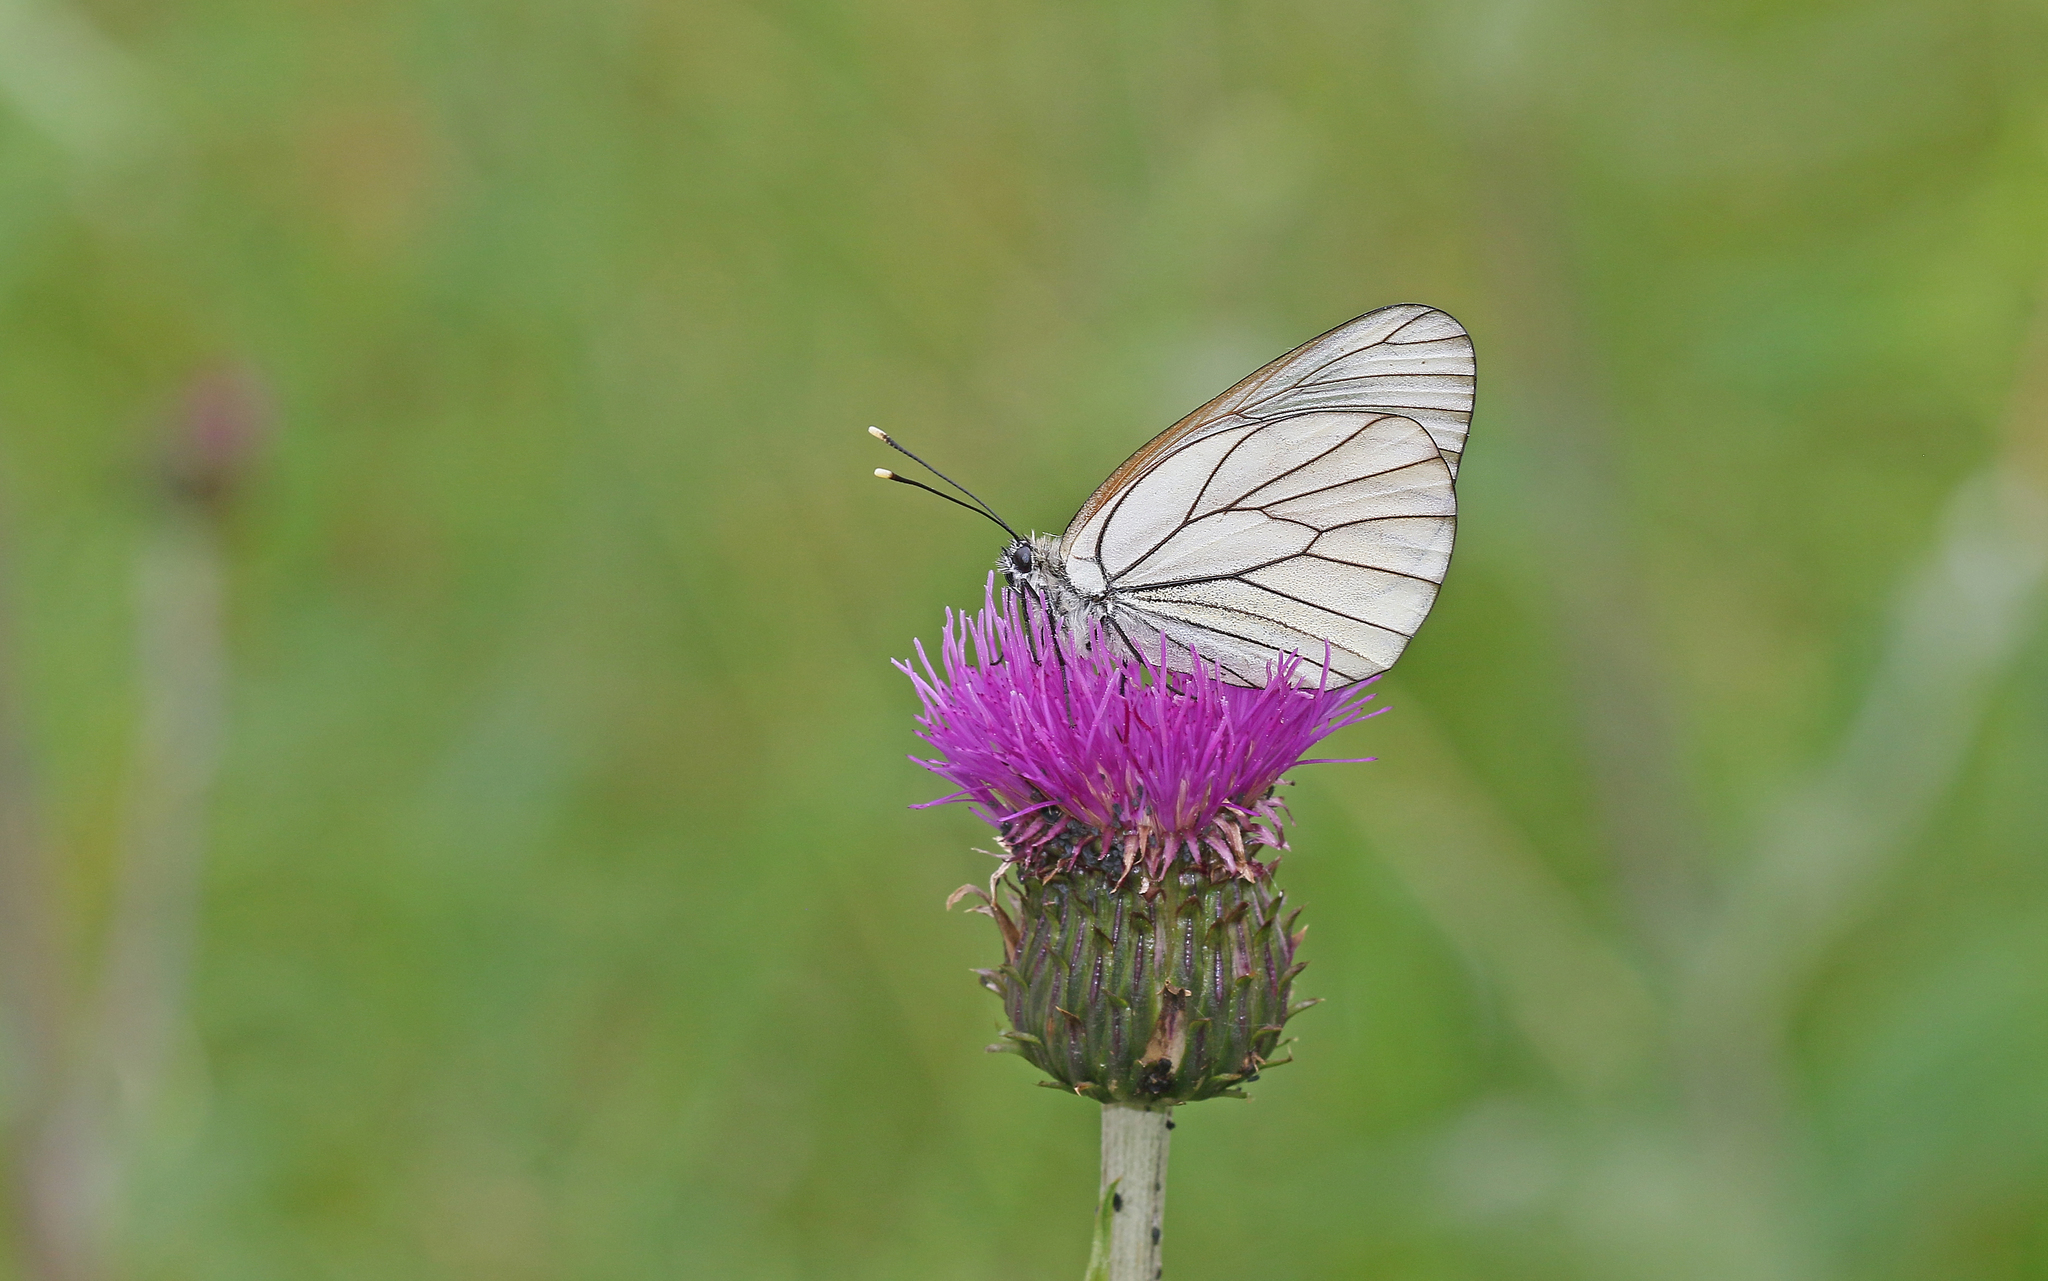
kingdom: Animalia
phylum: Arthropoda
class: Insecta
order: Lepidoptera
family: Pieridae
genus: Aporia
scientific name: Aporia crataegi
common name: Black-veined white
